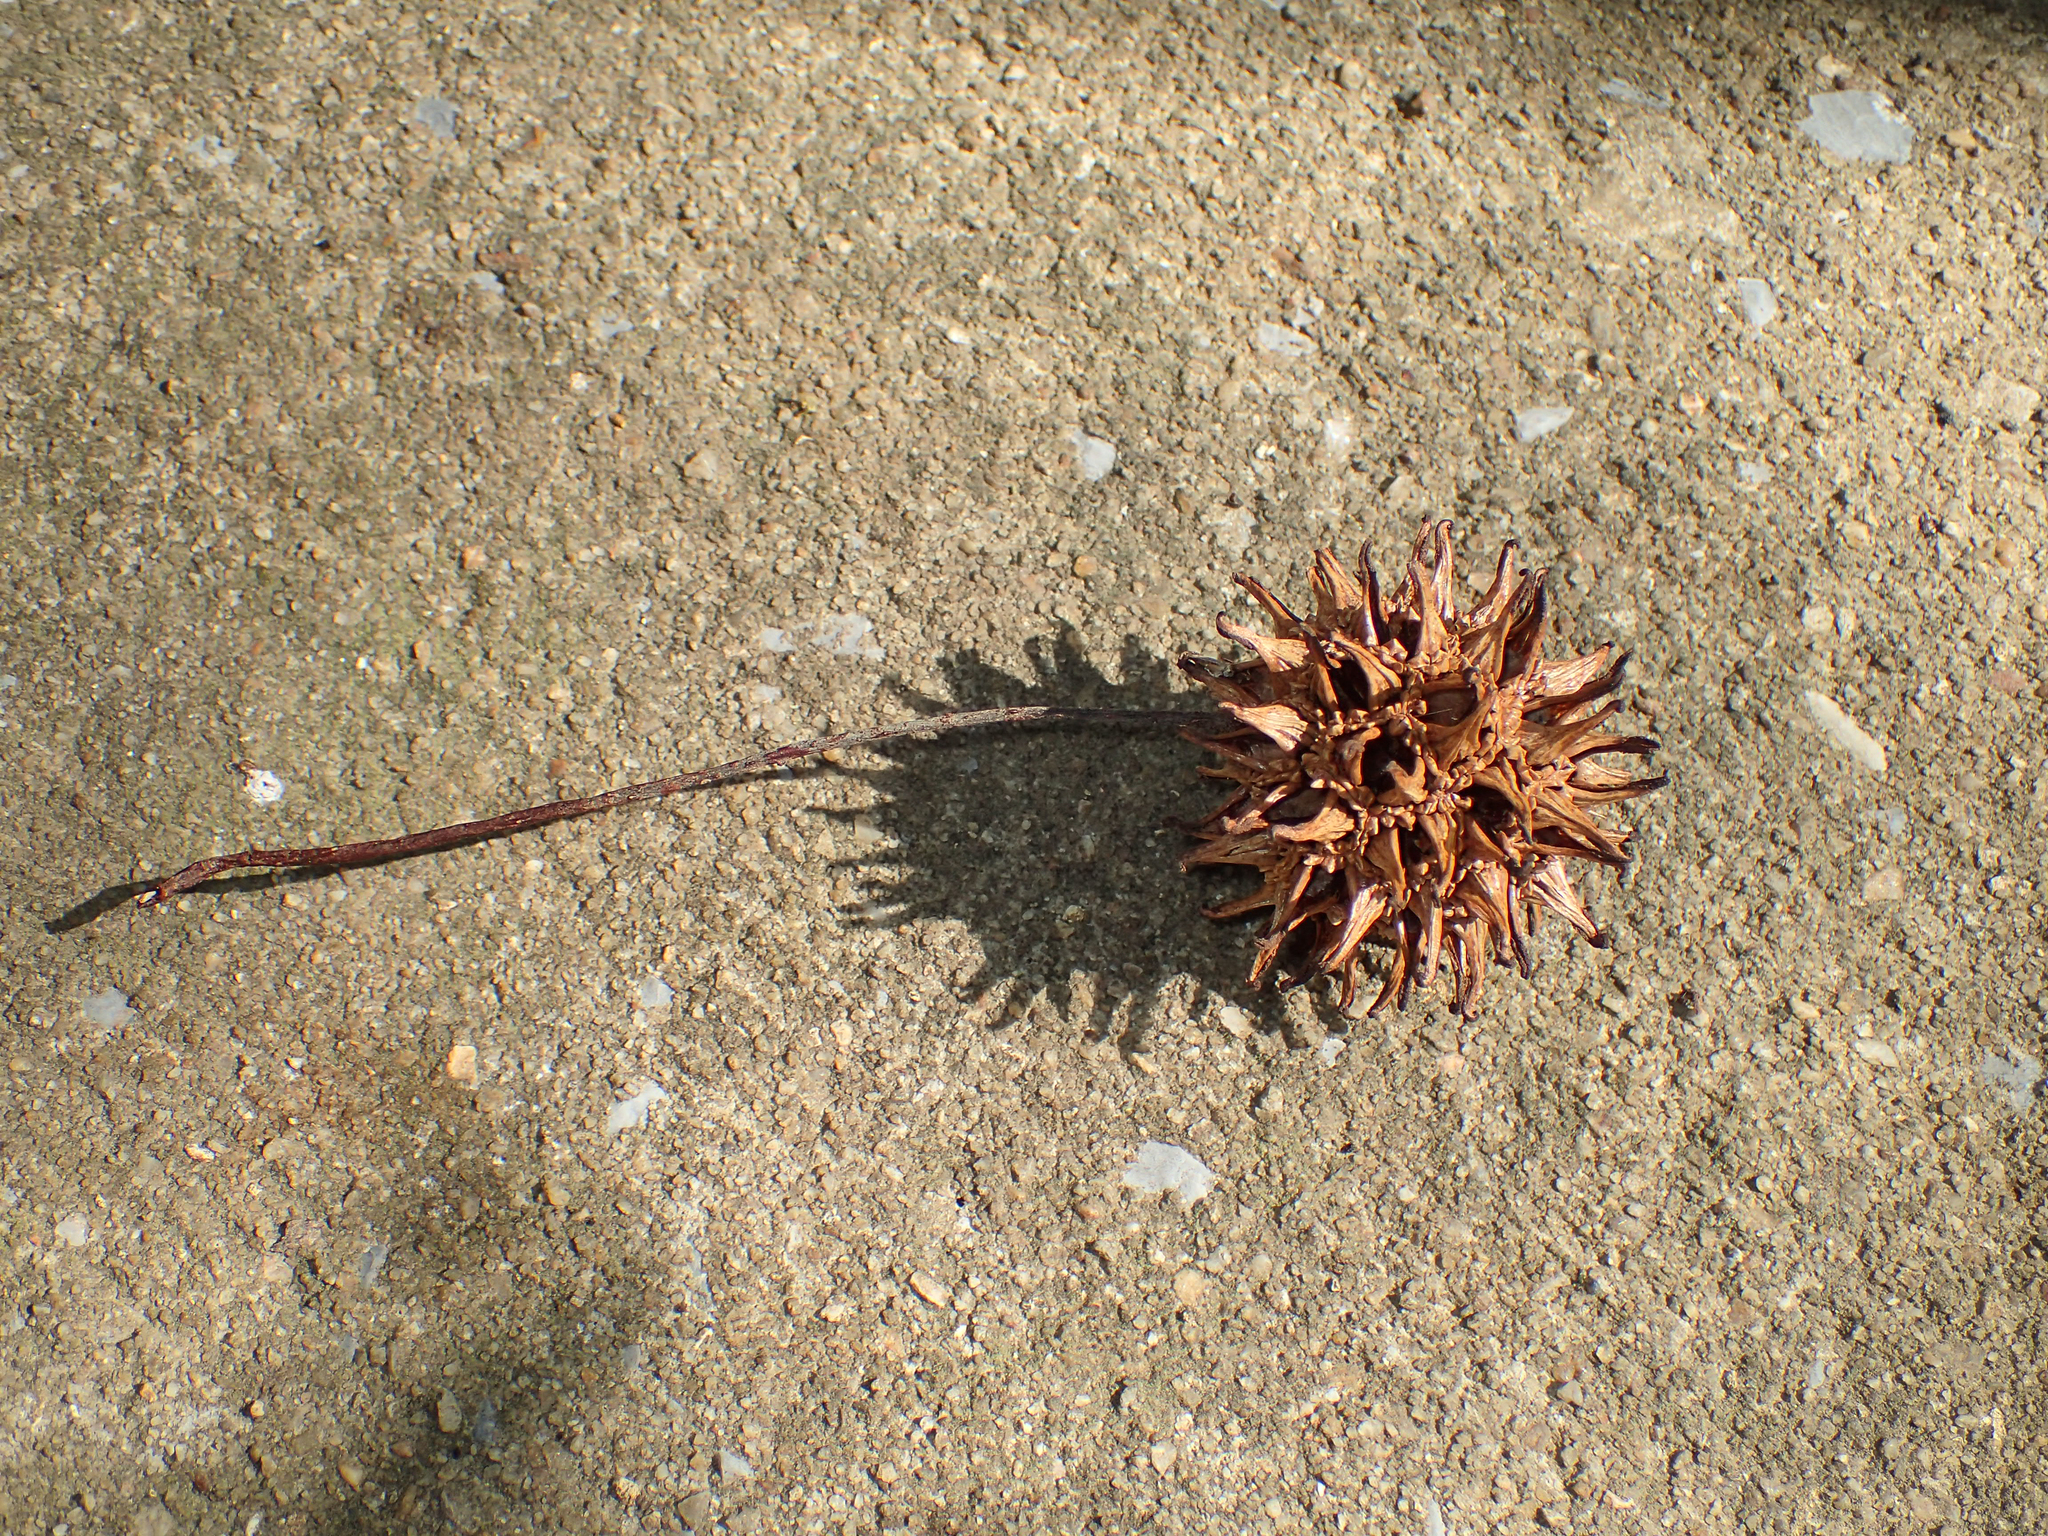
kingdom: Plantae
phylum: Tracheophyta
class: Magnoliopsida
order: Saxifragales
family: Altingiaceae
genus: Liquidambar
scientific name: Liquidambar styraciflua
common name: Sweet gum
